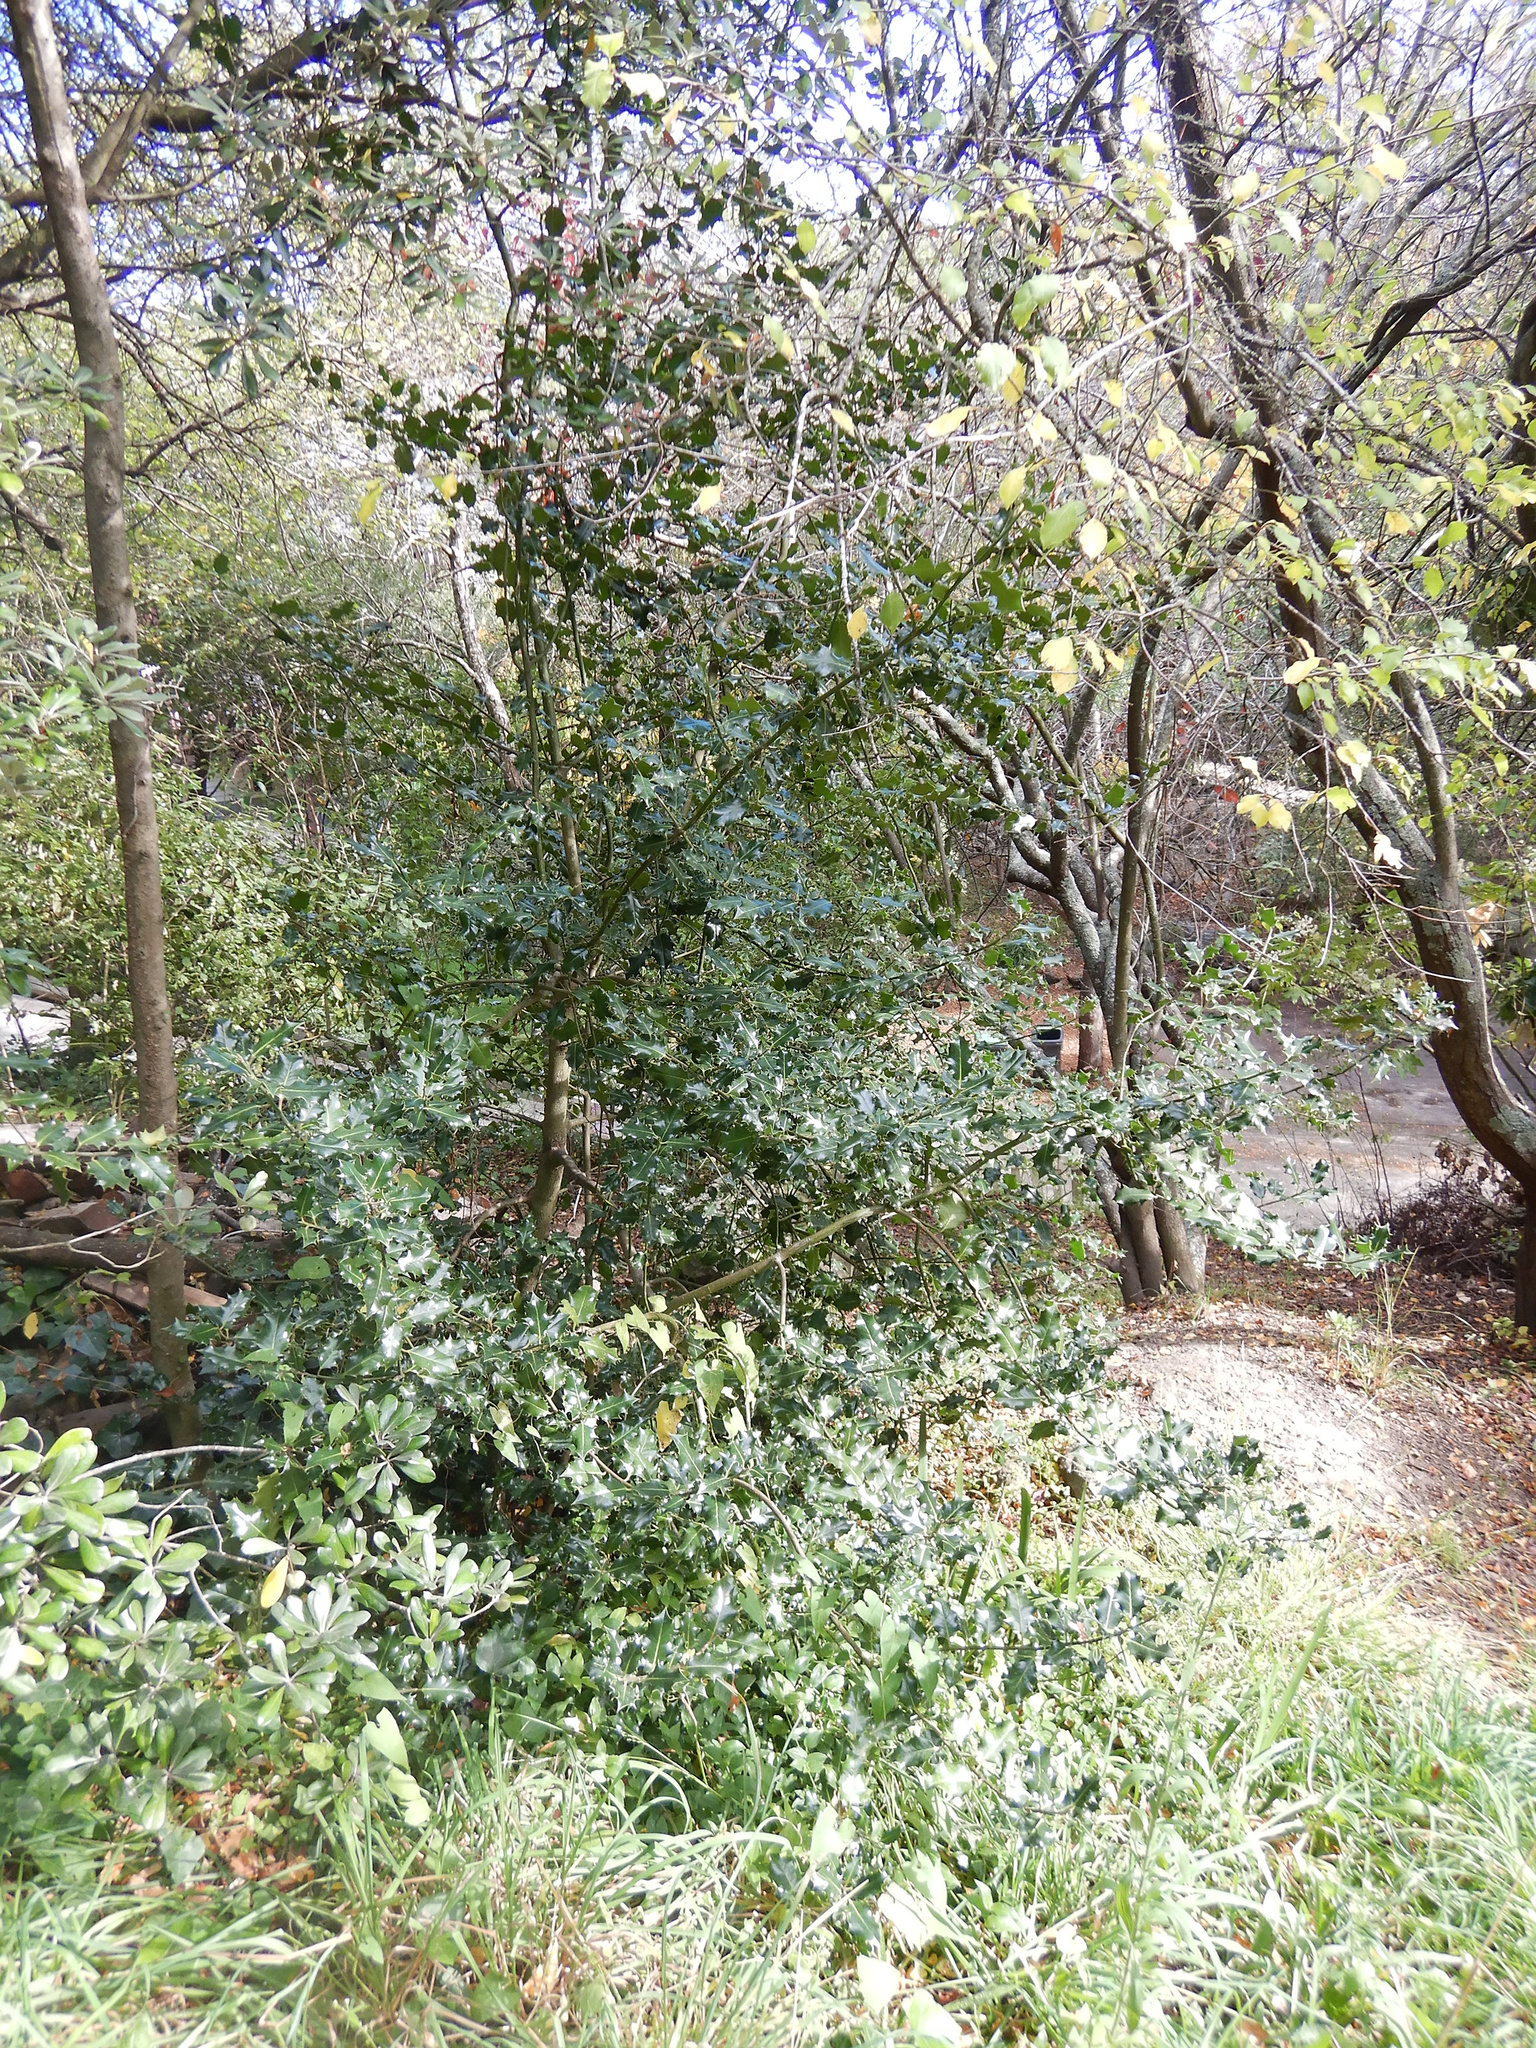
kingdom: Plantae
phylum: Tracheophyta
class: Magnoliopsida
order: Aquifoliales
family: Aquifoliaceae
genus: Ilex
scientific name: Ilex aquifolium
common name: English holly
